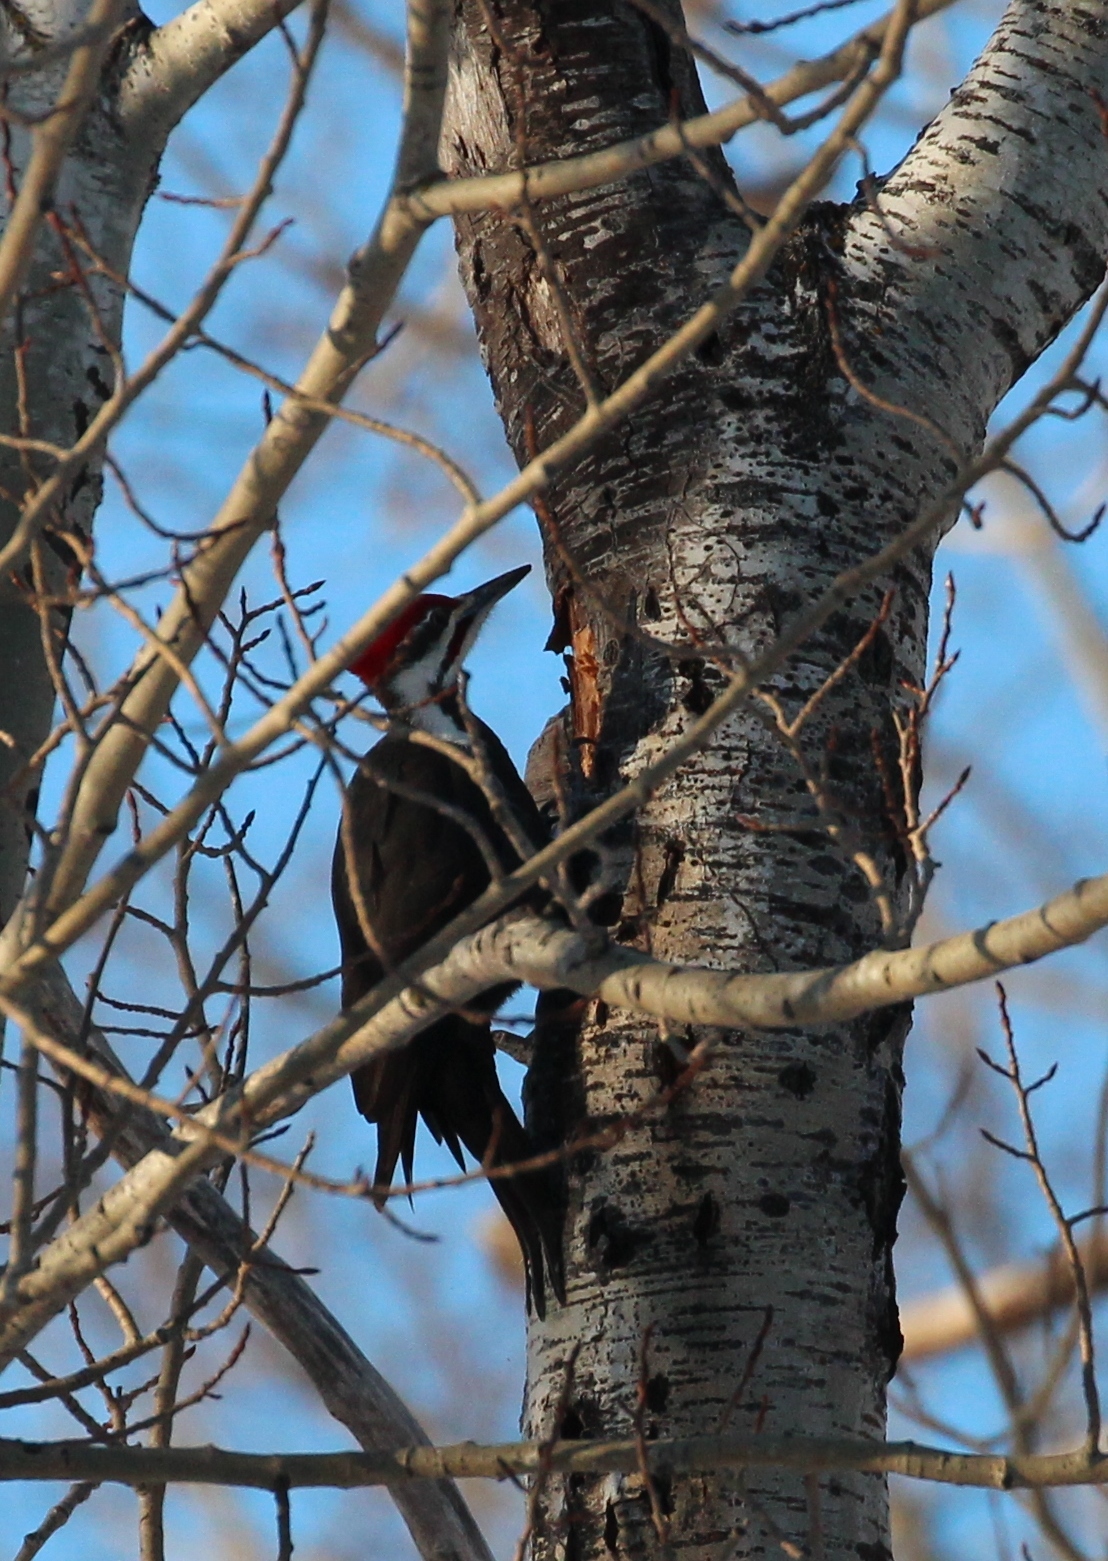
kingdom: Animalia
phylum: Chordata
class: Aves
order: Piciformes
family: Picidae
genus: Dryocopus
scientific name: Dryocopus pileatus
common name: Pileated woodpecker
